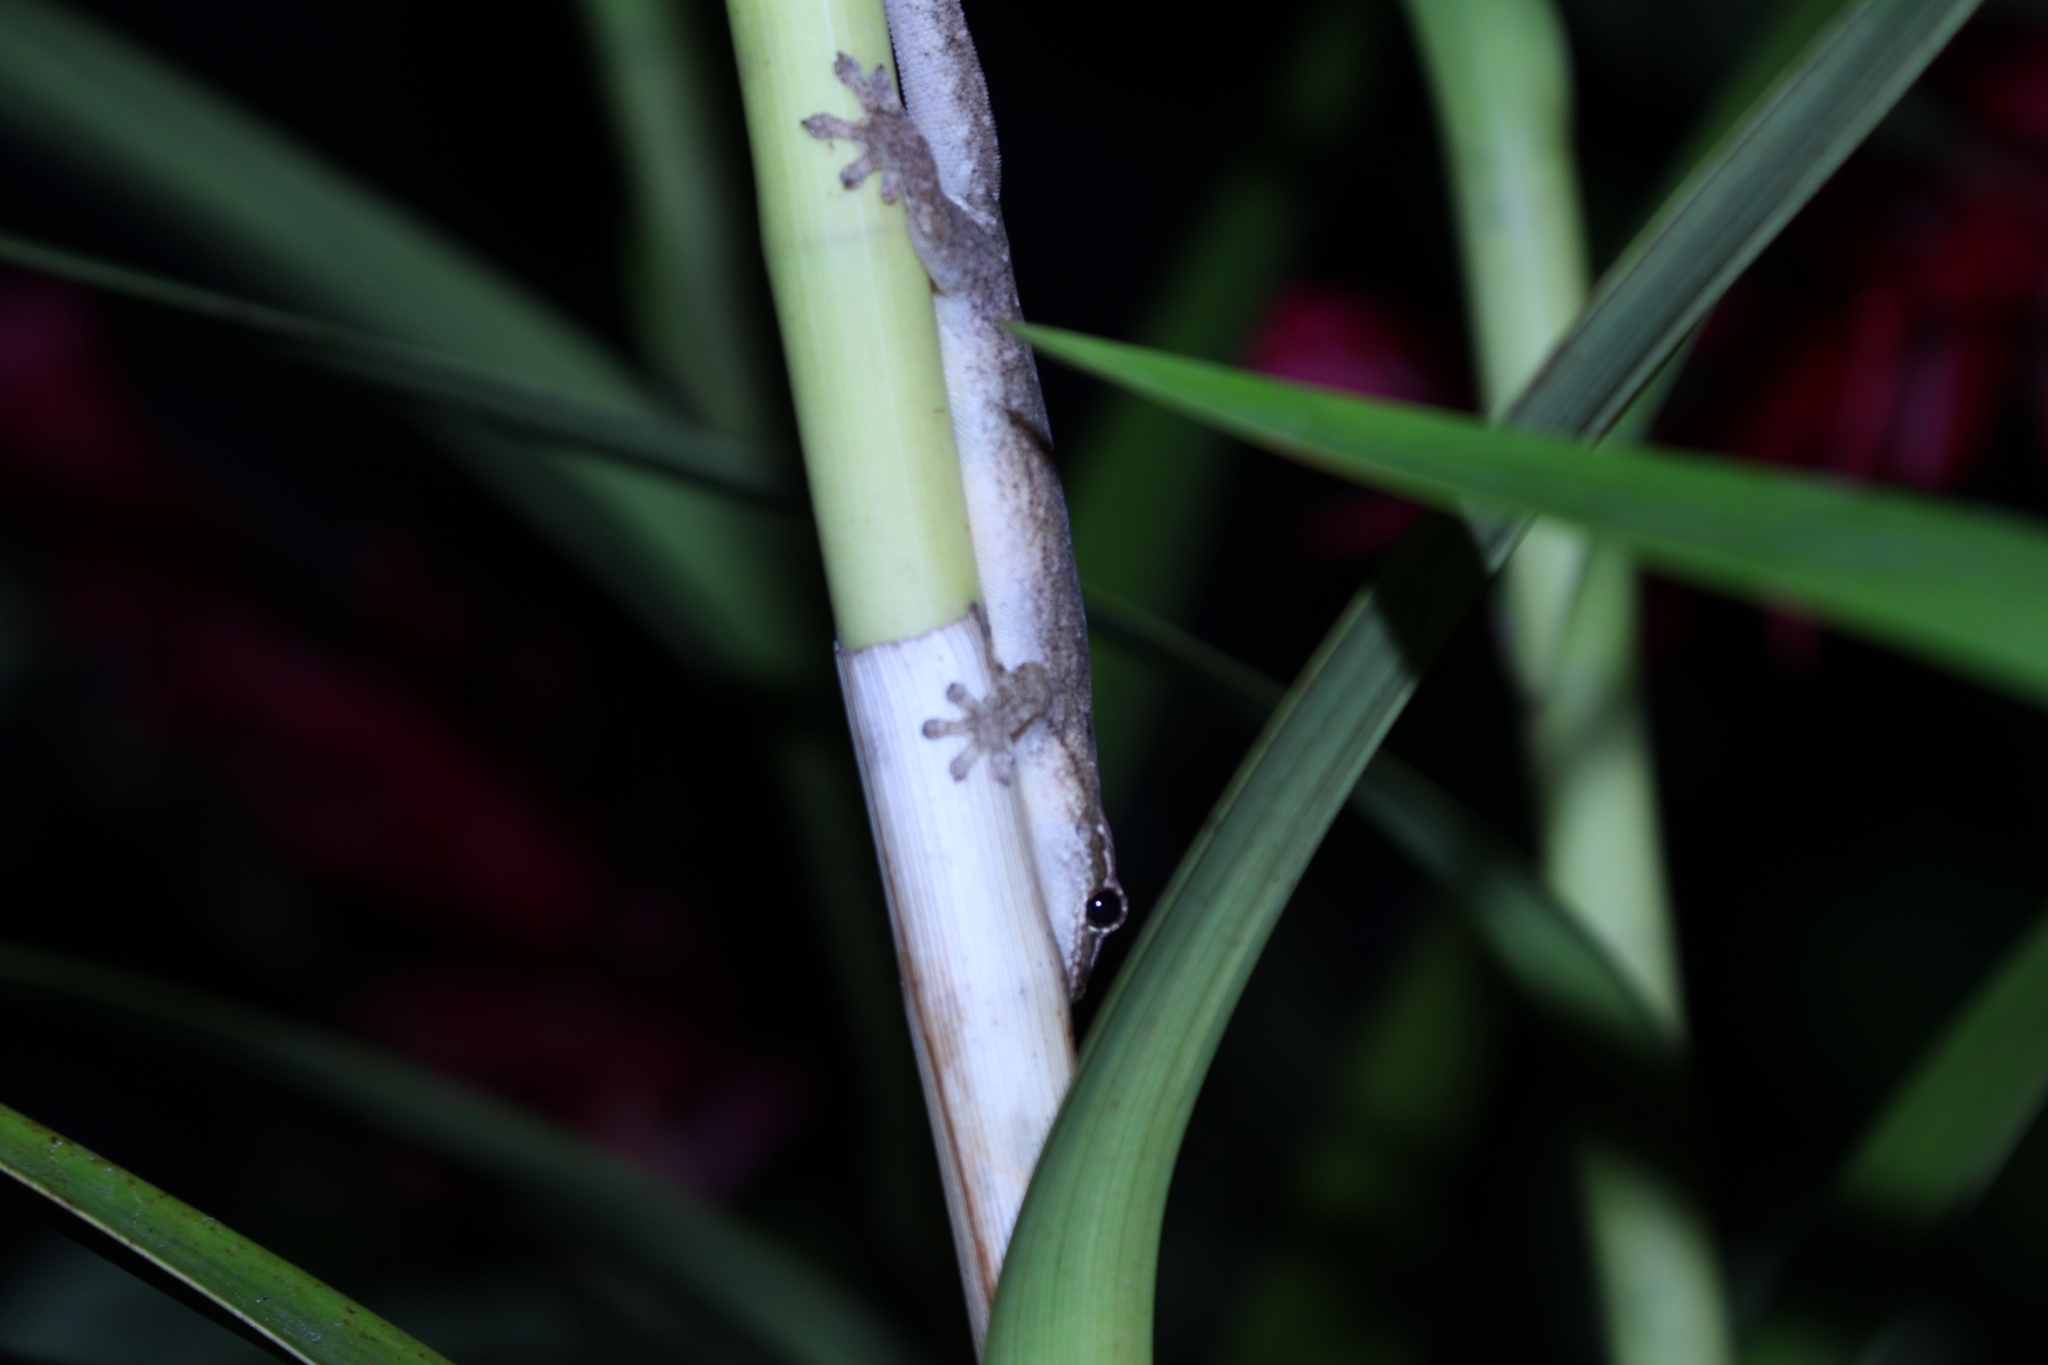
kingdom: Animalia
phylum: Chordata
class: Squamata
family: Gekkonidae
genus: Lepidodactylus
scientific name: Lepidodactylus lugubris
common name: Mourning gecko
